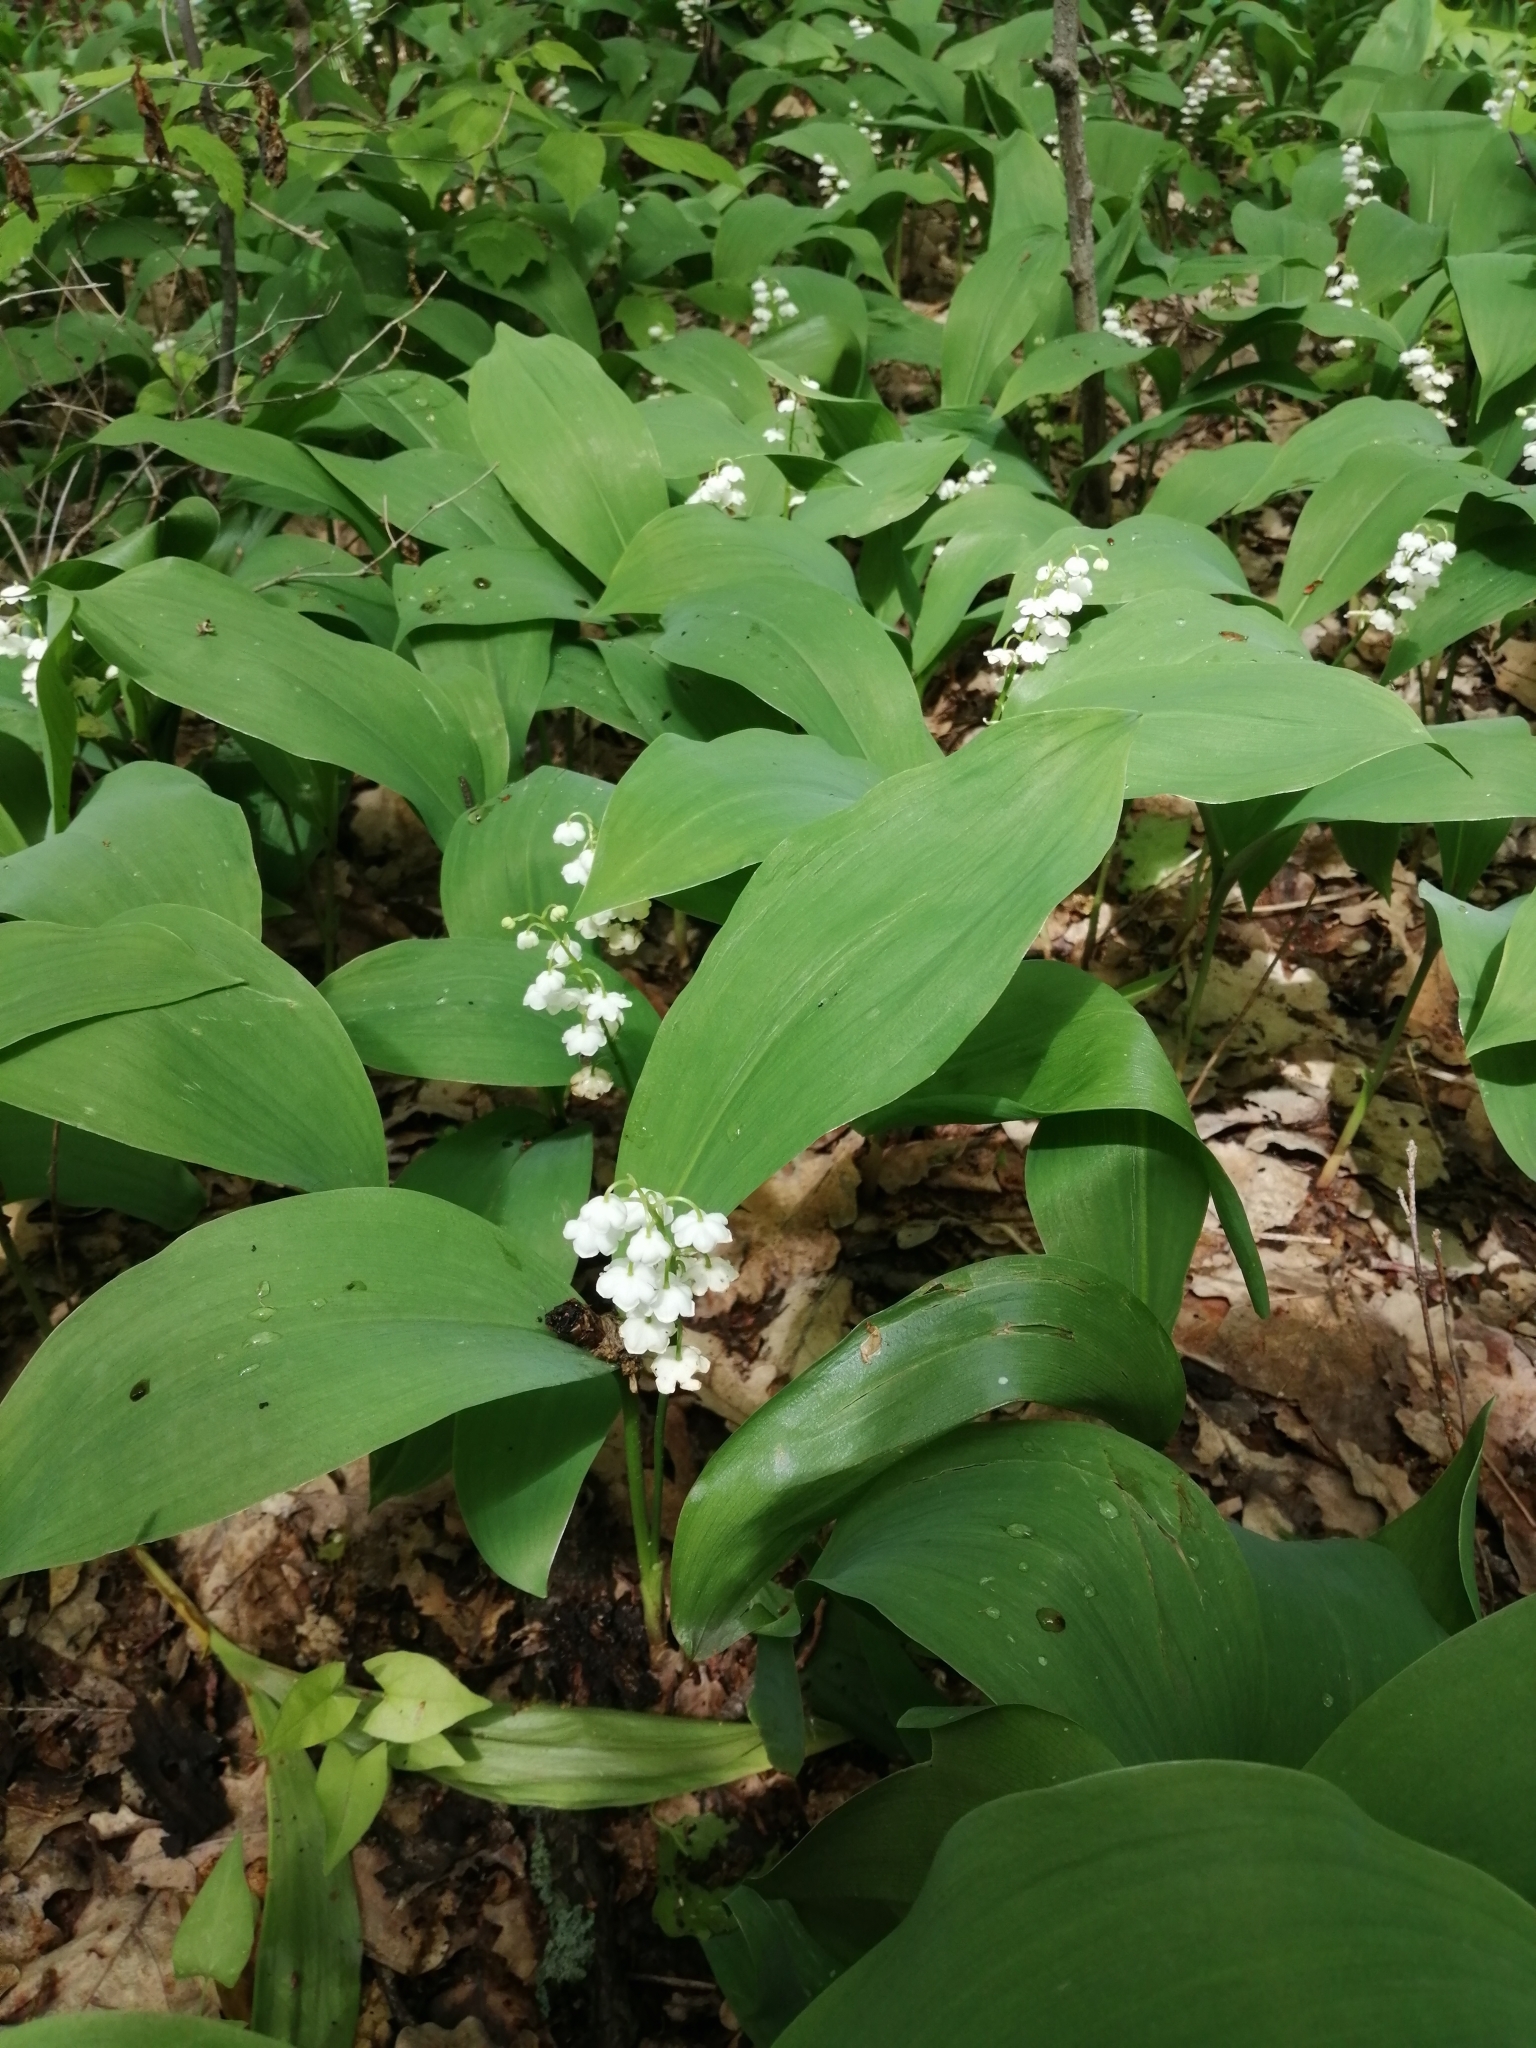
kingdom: Plantae
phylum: Tracheophyta
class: Liliopsida
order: Asparagales
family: Asparagaceae
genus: Convallaria
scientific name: Convallaria majalis
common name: Lily-of-the-valley
